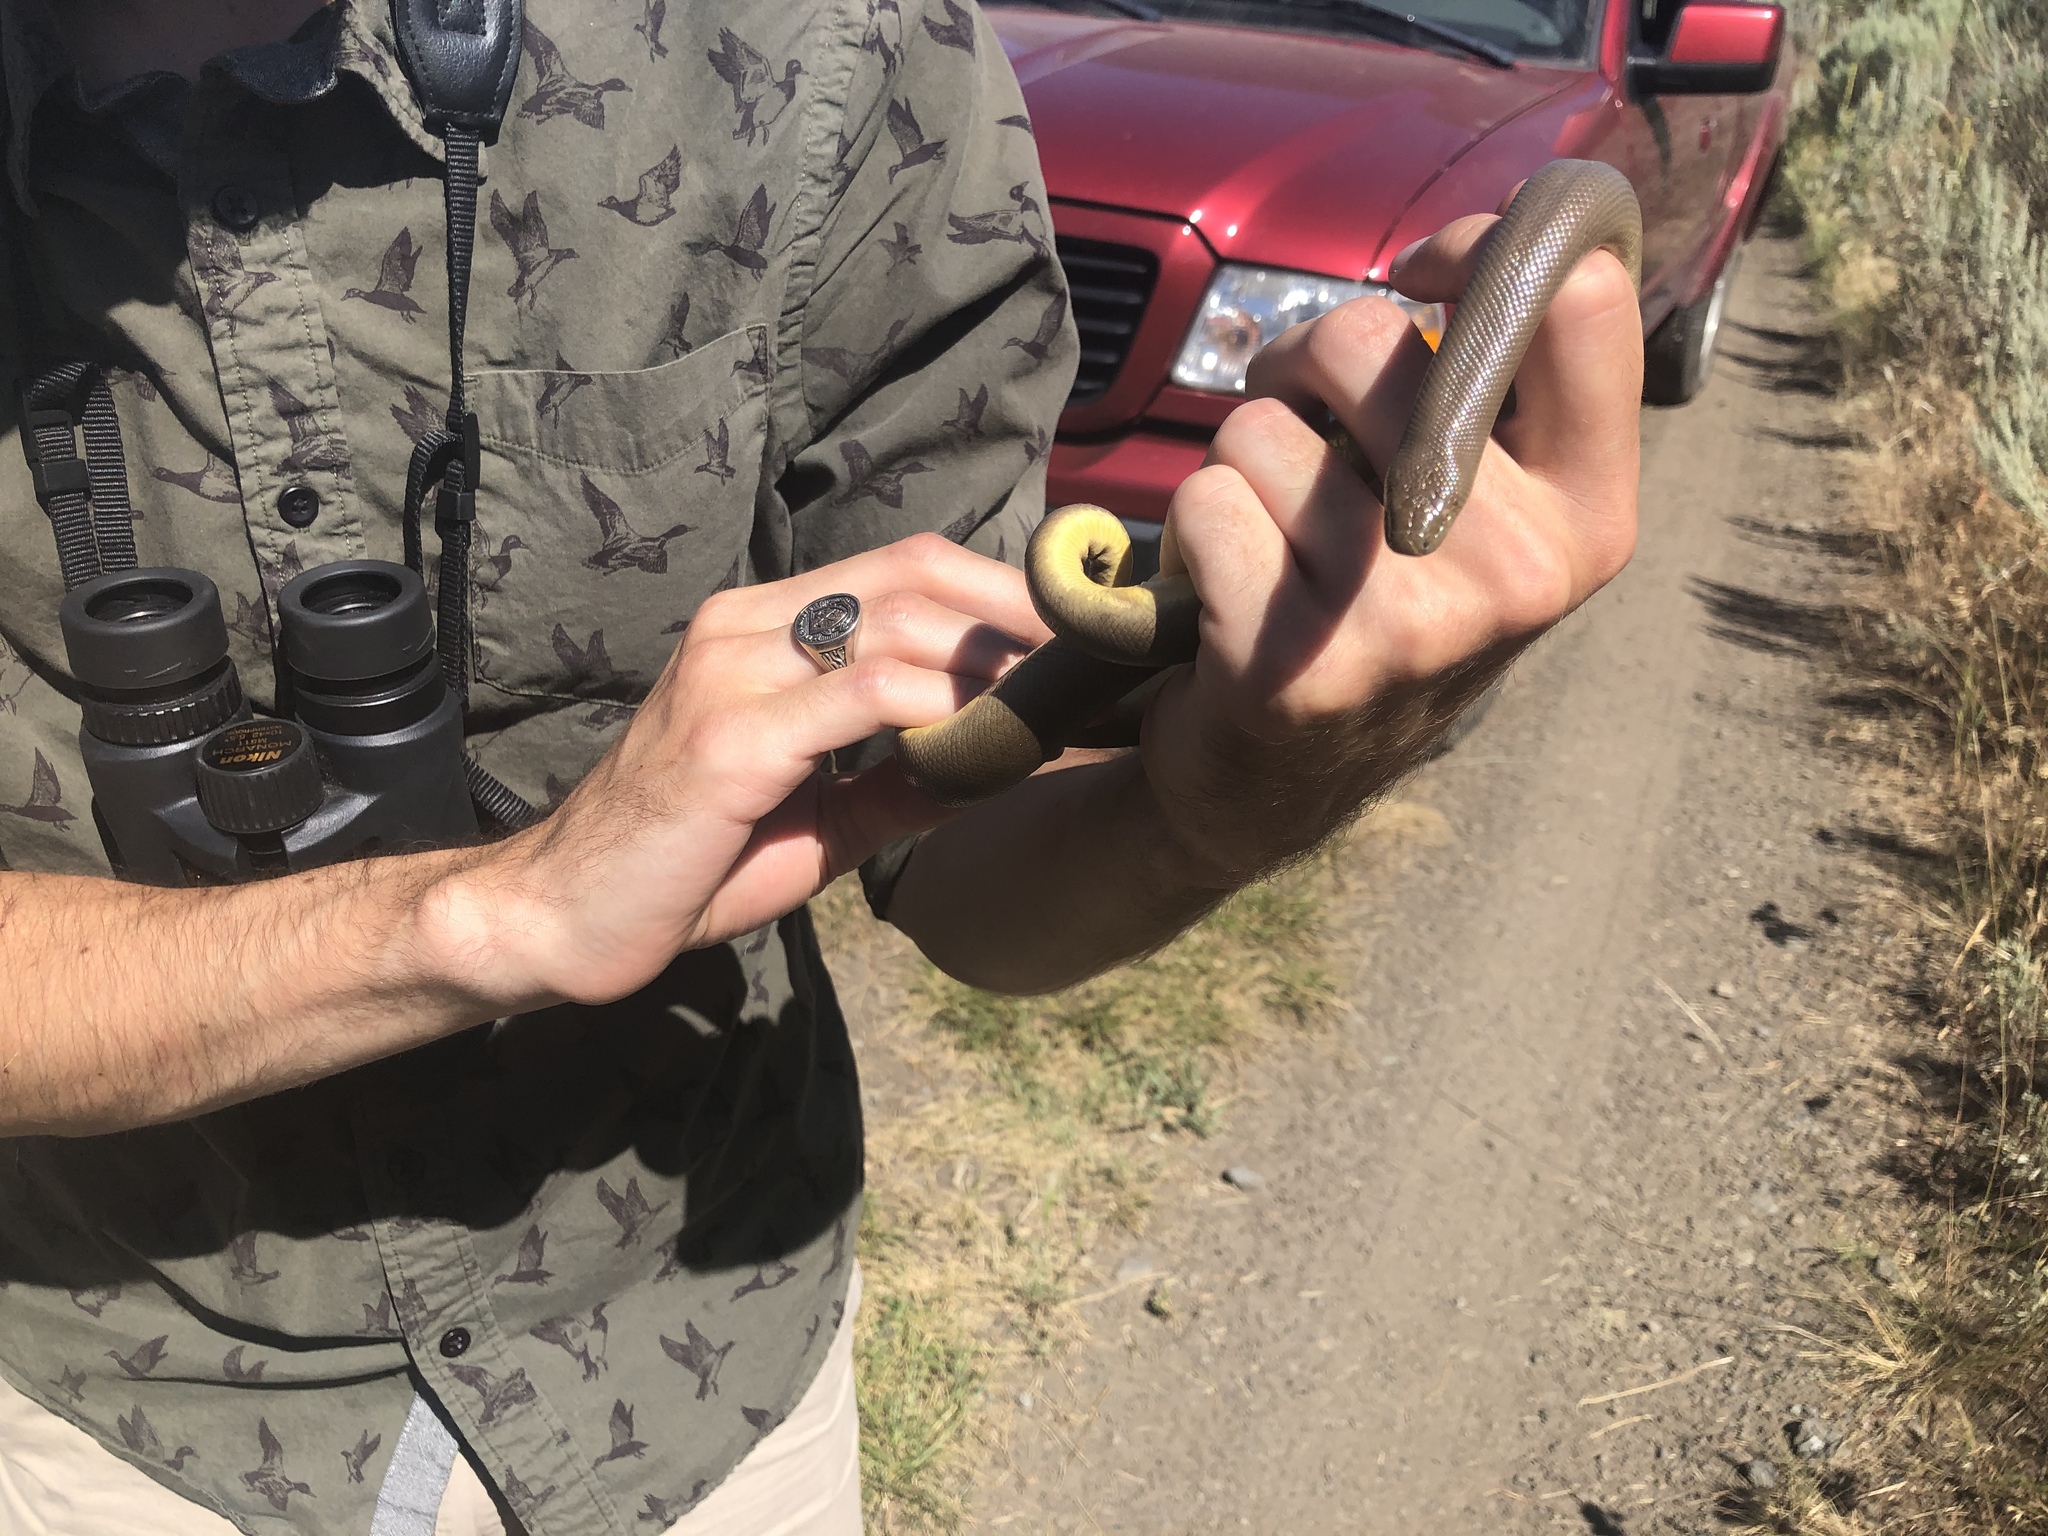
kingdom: Animalia
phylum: Chordata
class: Squamata
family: Boidae
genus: Charina
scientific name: Charina bottae
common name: Northern rubber boa
